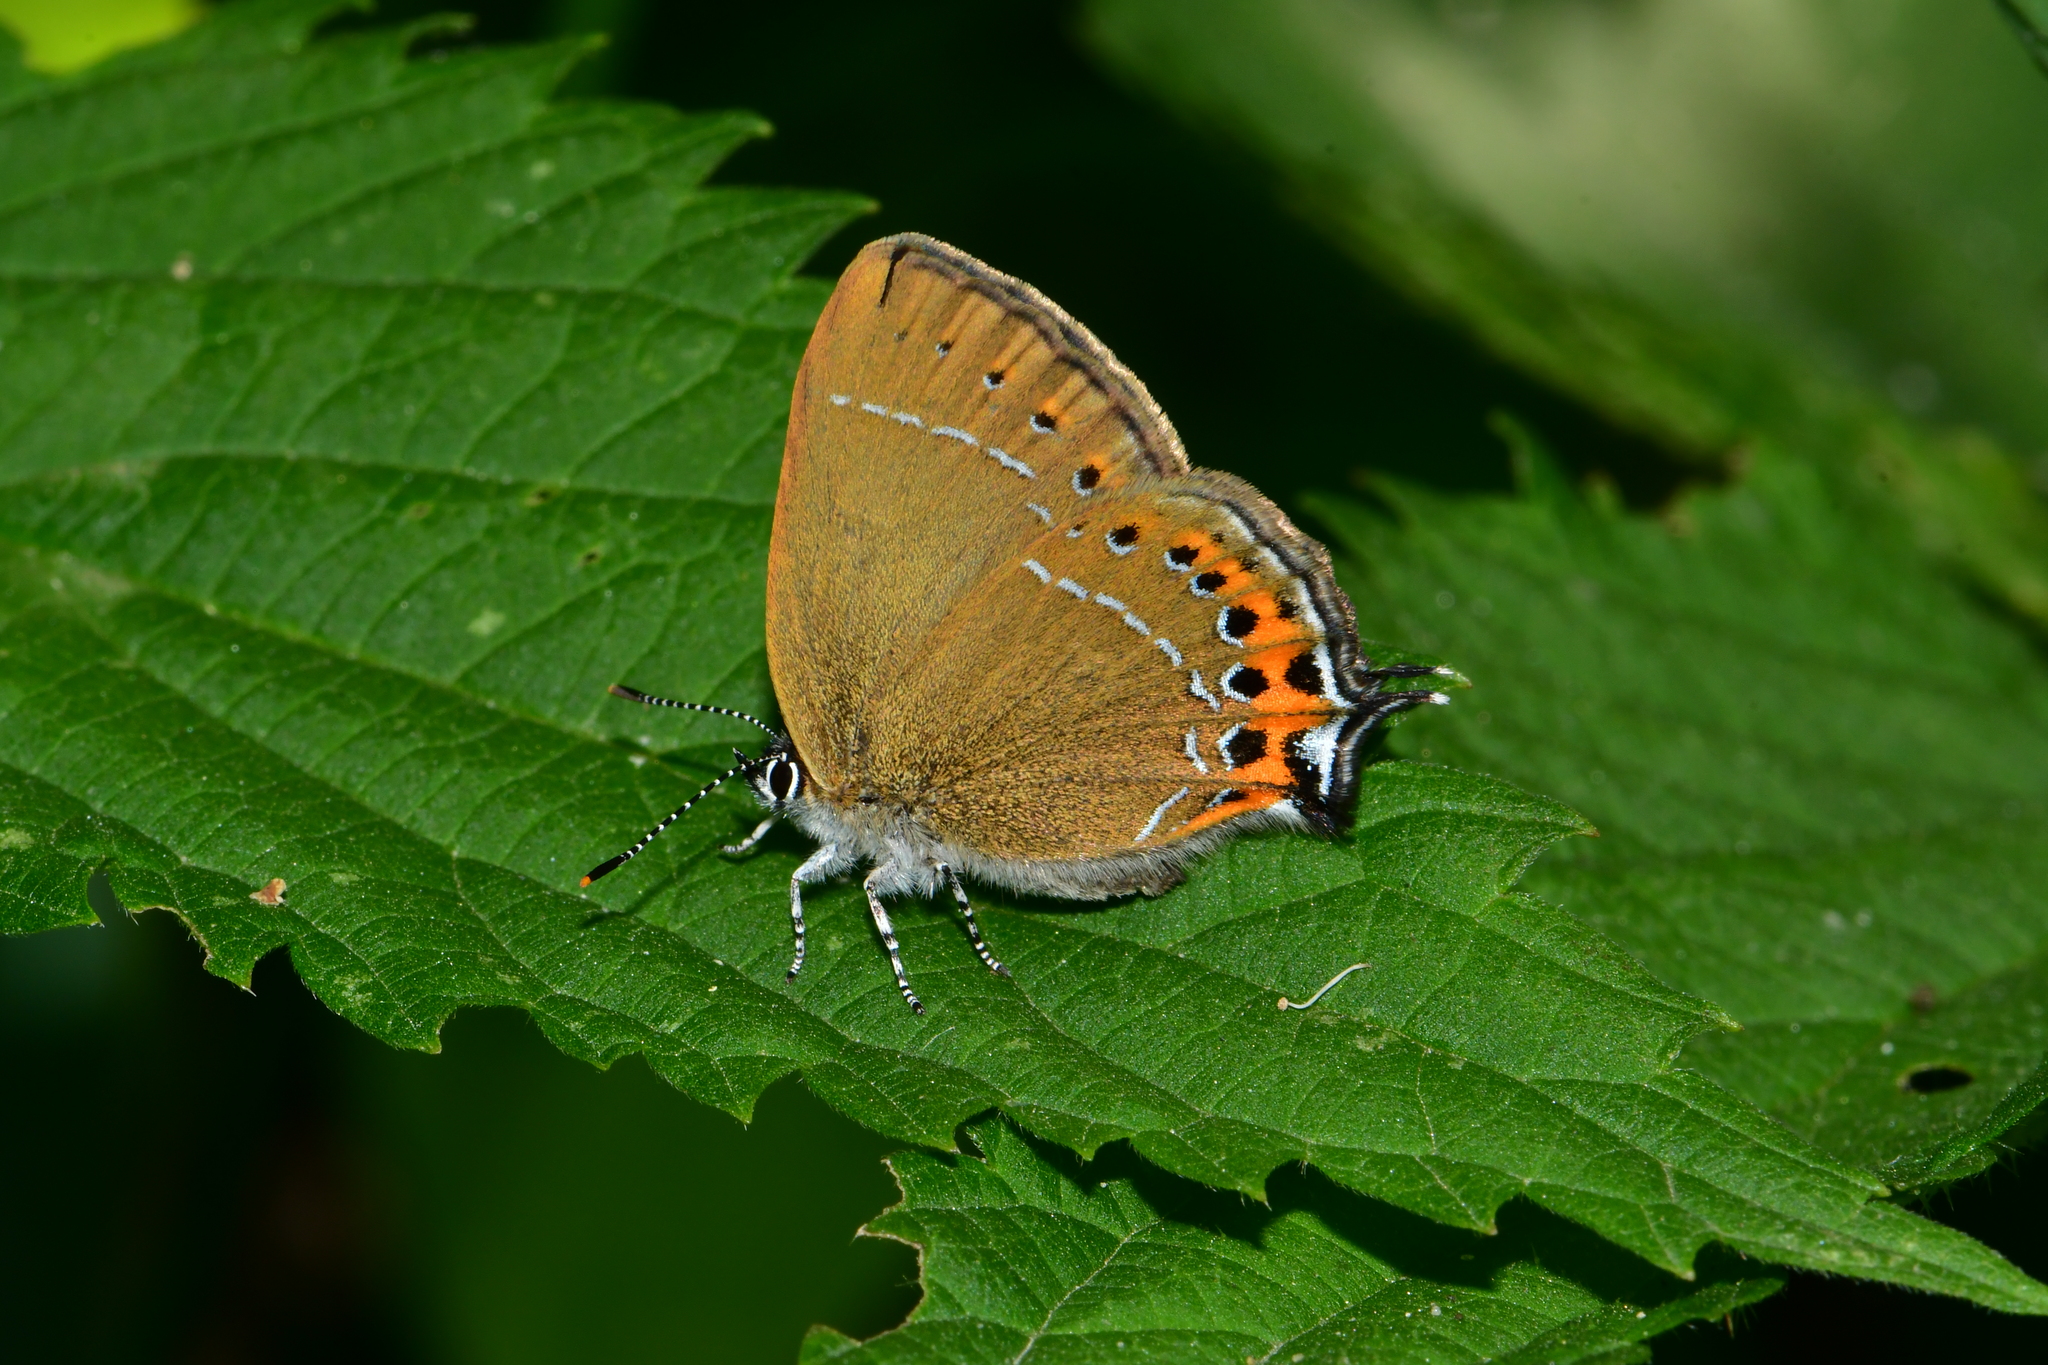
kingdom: Animalia
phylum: Arthropoda
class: Insecta
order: Lepidoptera
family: Lycaenidae
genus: Fixsenia
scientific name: Fixsenia pruni
